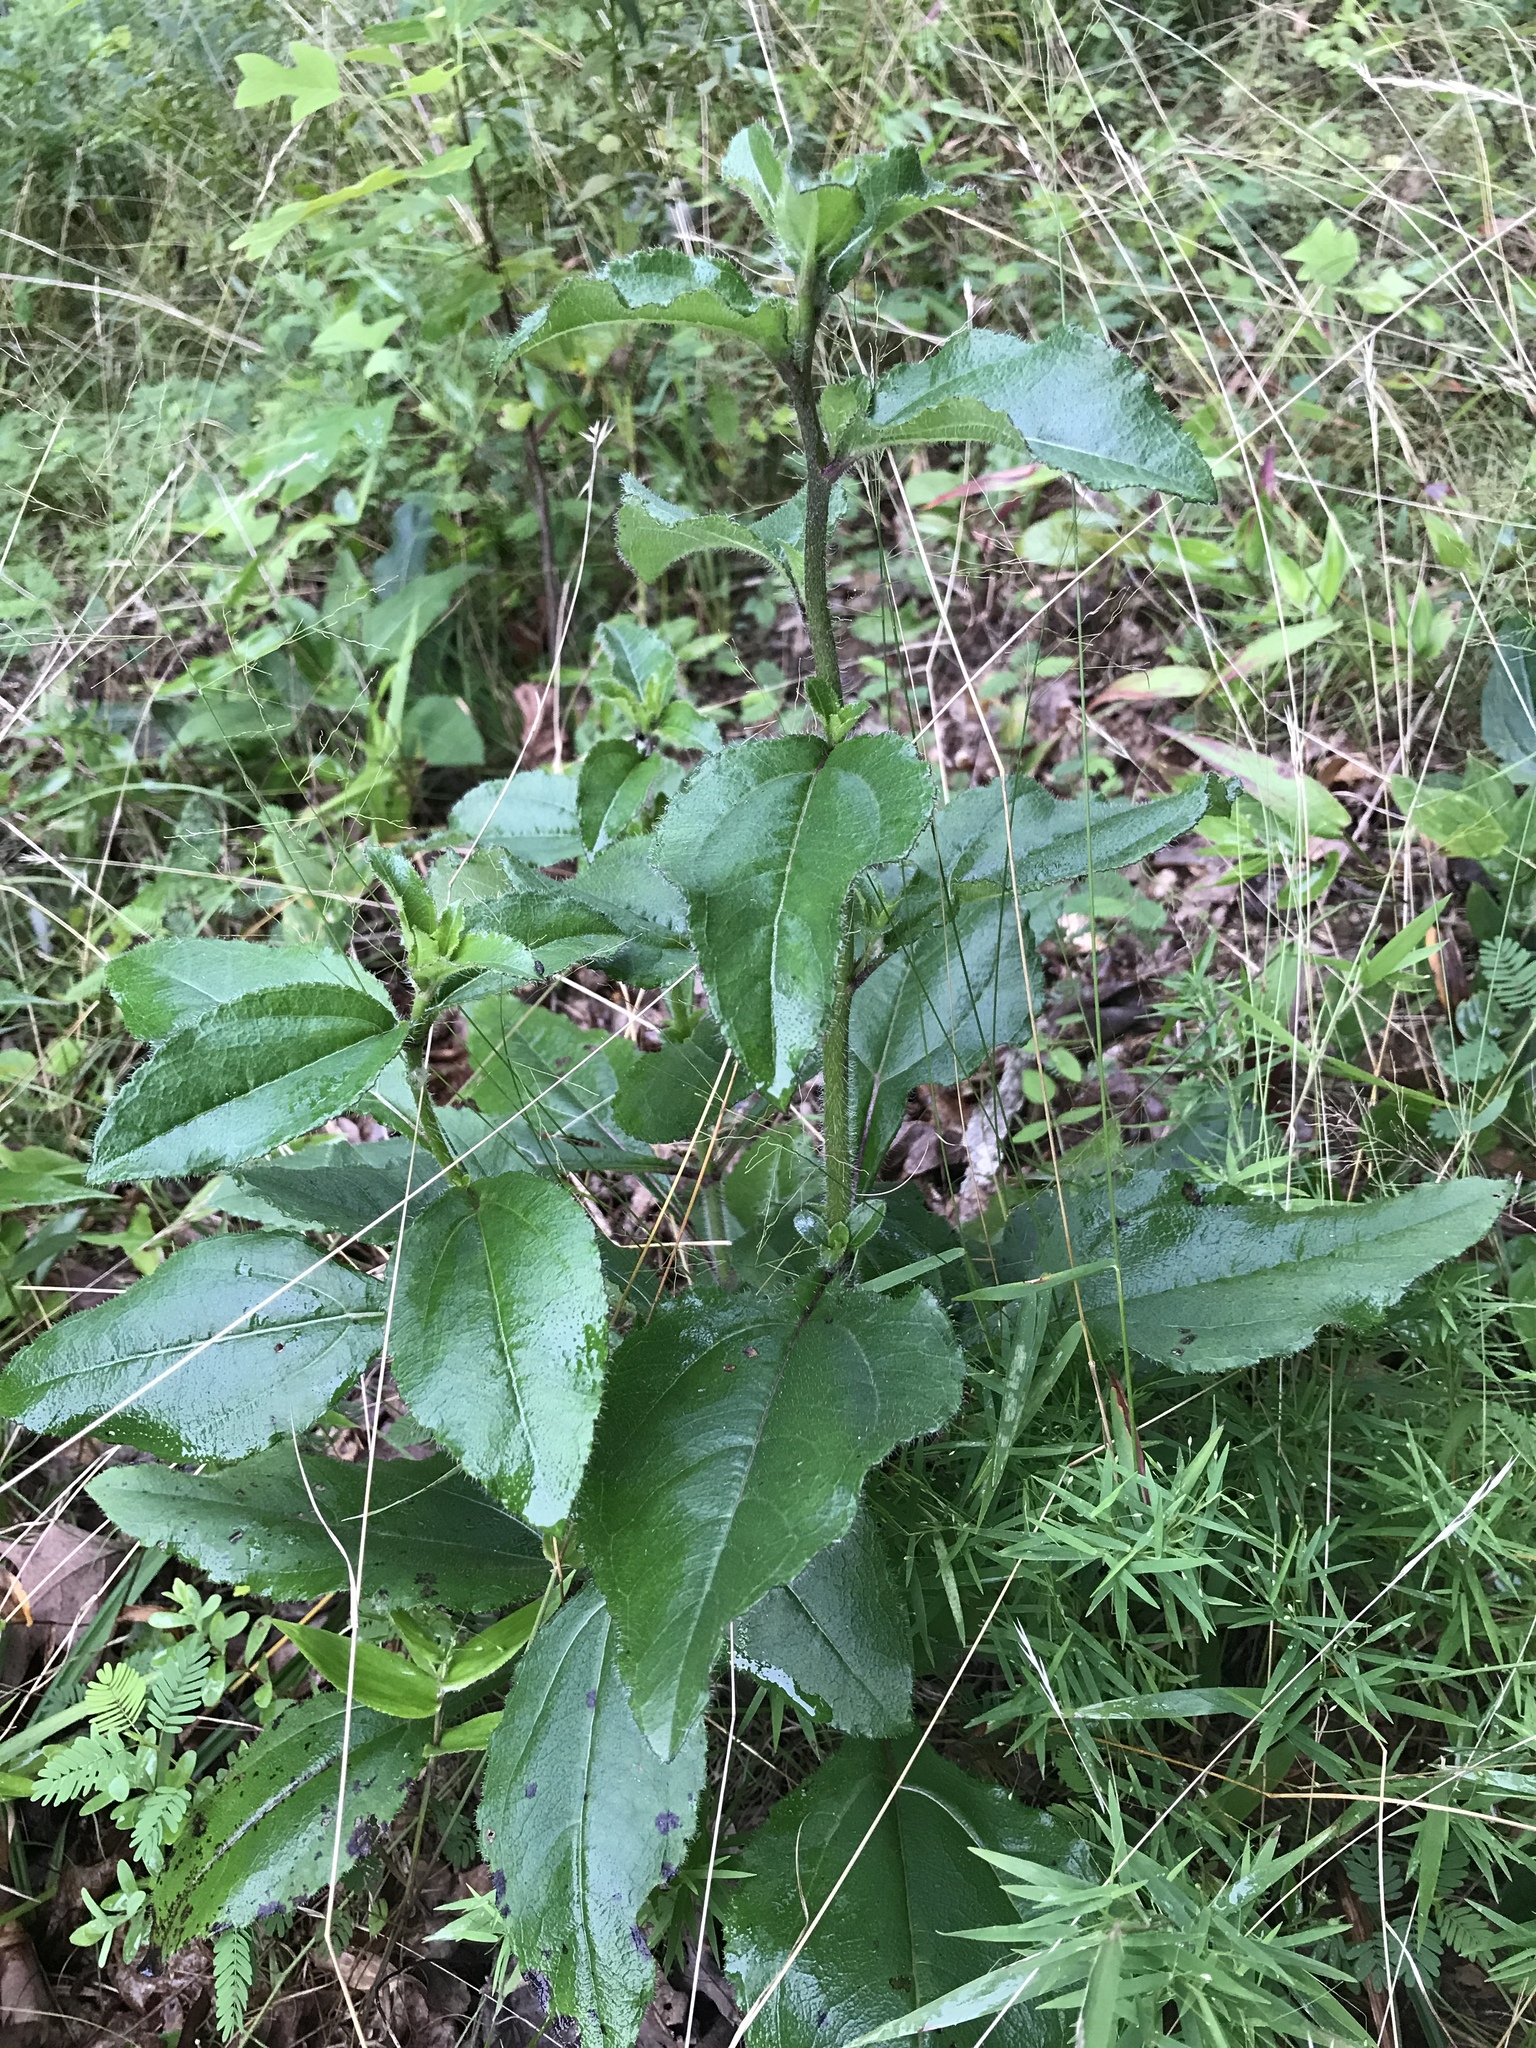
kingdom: Plantae
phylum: Tracheophyta
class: Magnoliopsida
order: Asterales
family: Asteraceae
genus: Helianthus
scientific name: Helianthus atrorubens
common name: Dark-eyed sunflower
